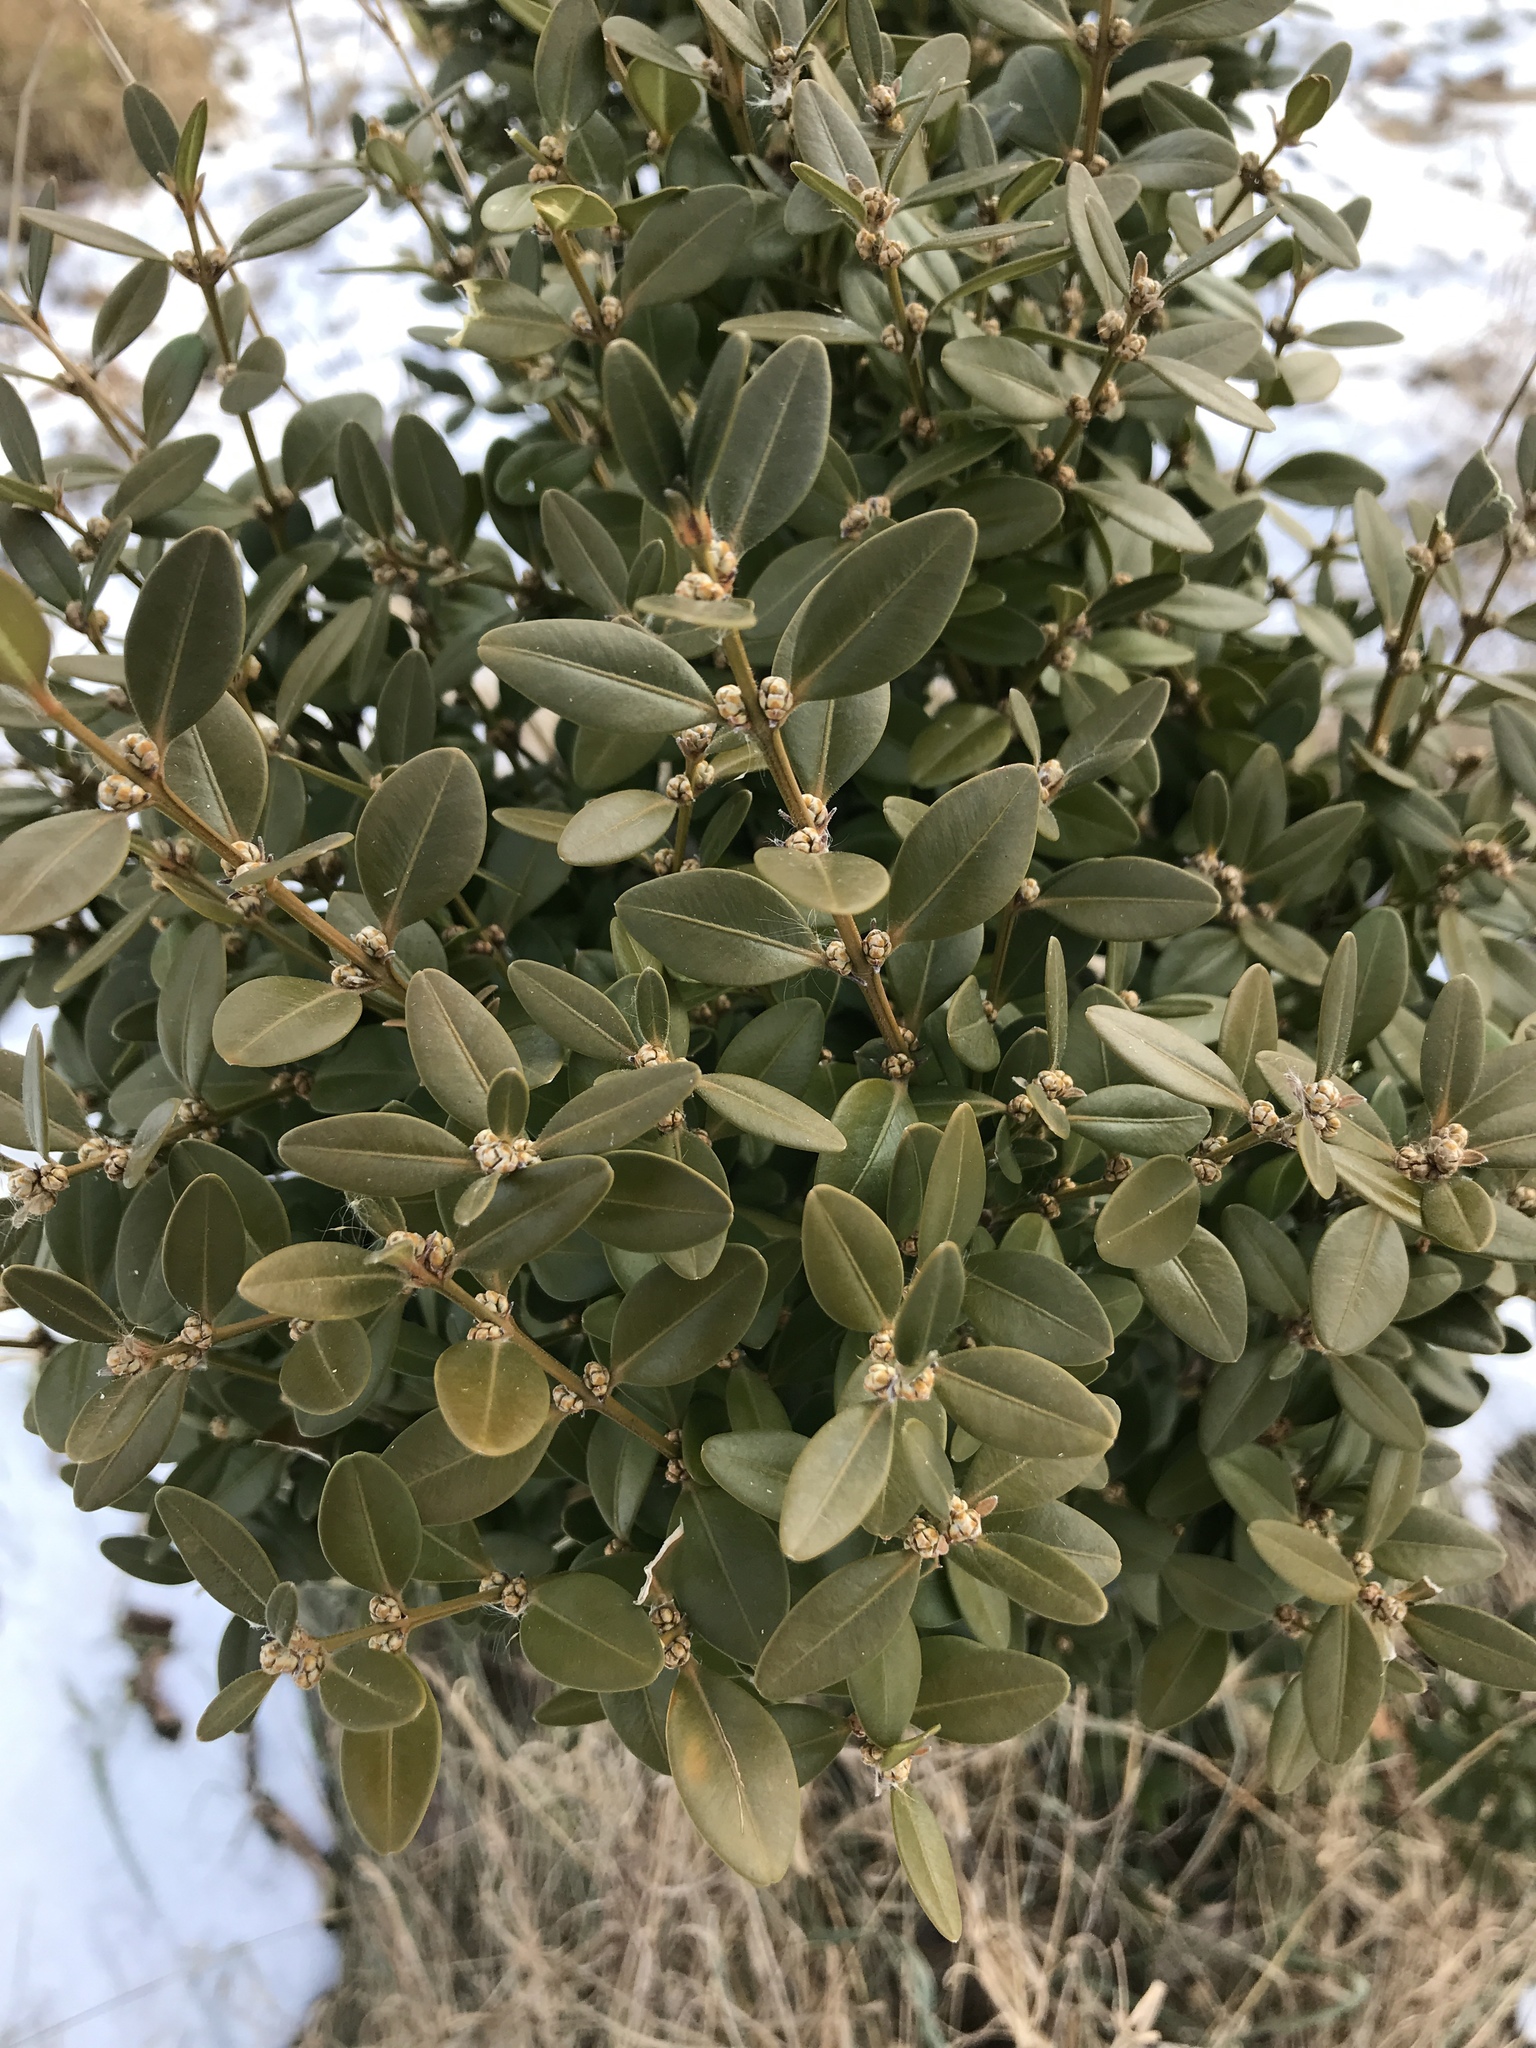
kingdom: Plantae
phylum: Tracheophyta
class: Magnoliopsida
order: Buxales
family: Buxaceae
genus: Buxus
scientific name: Buxus sempervirens
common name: Box
